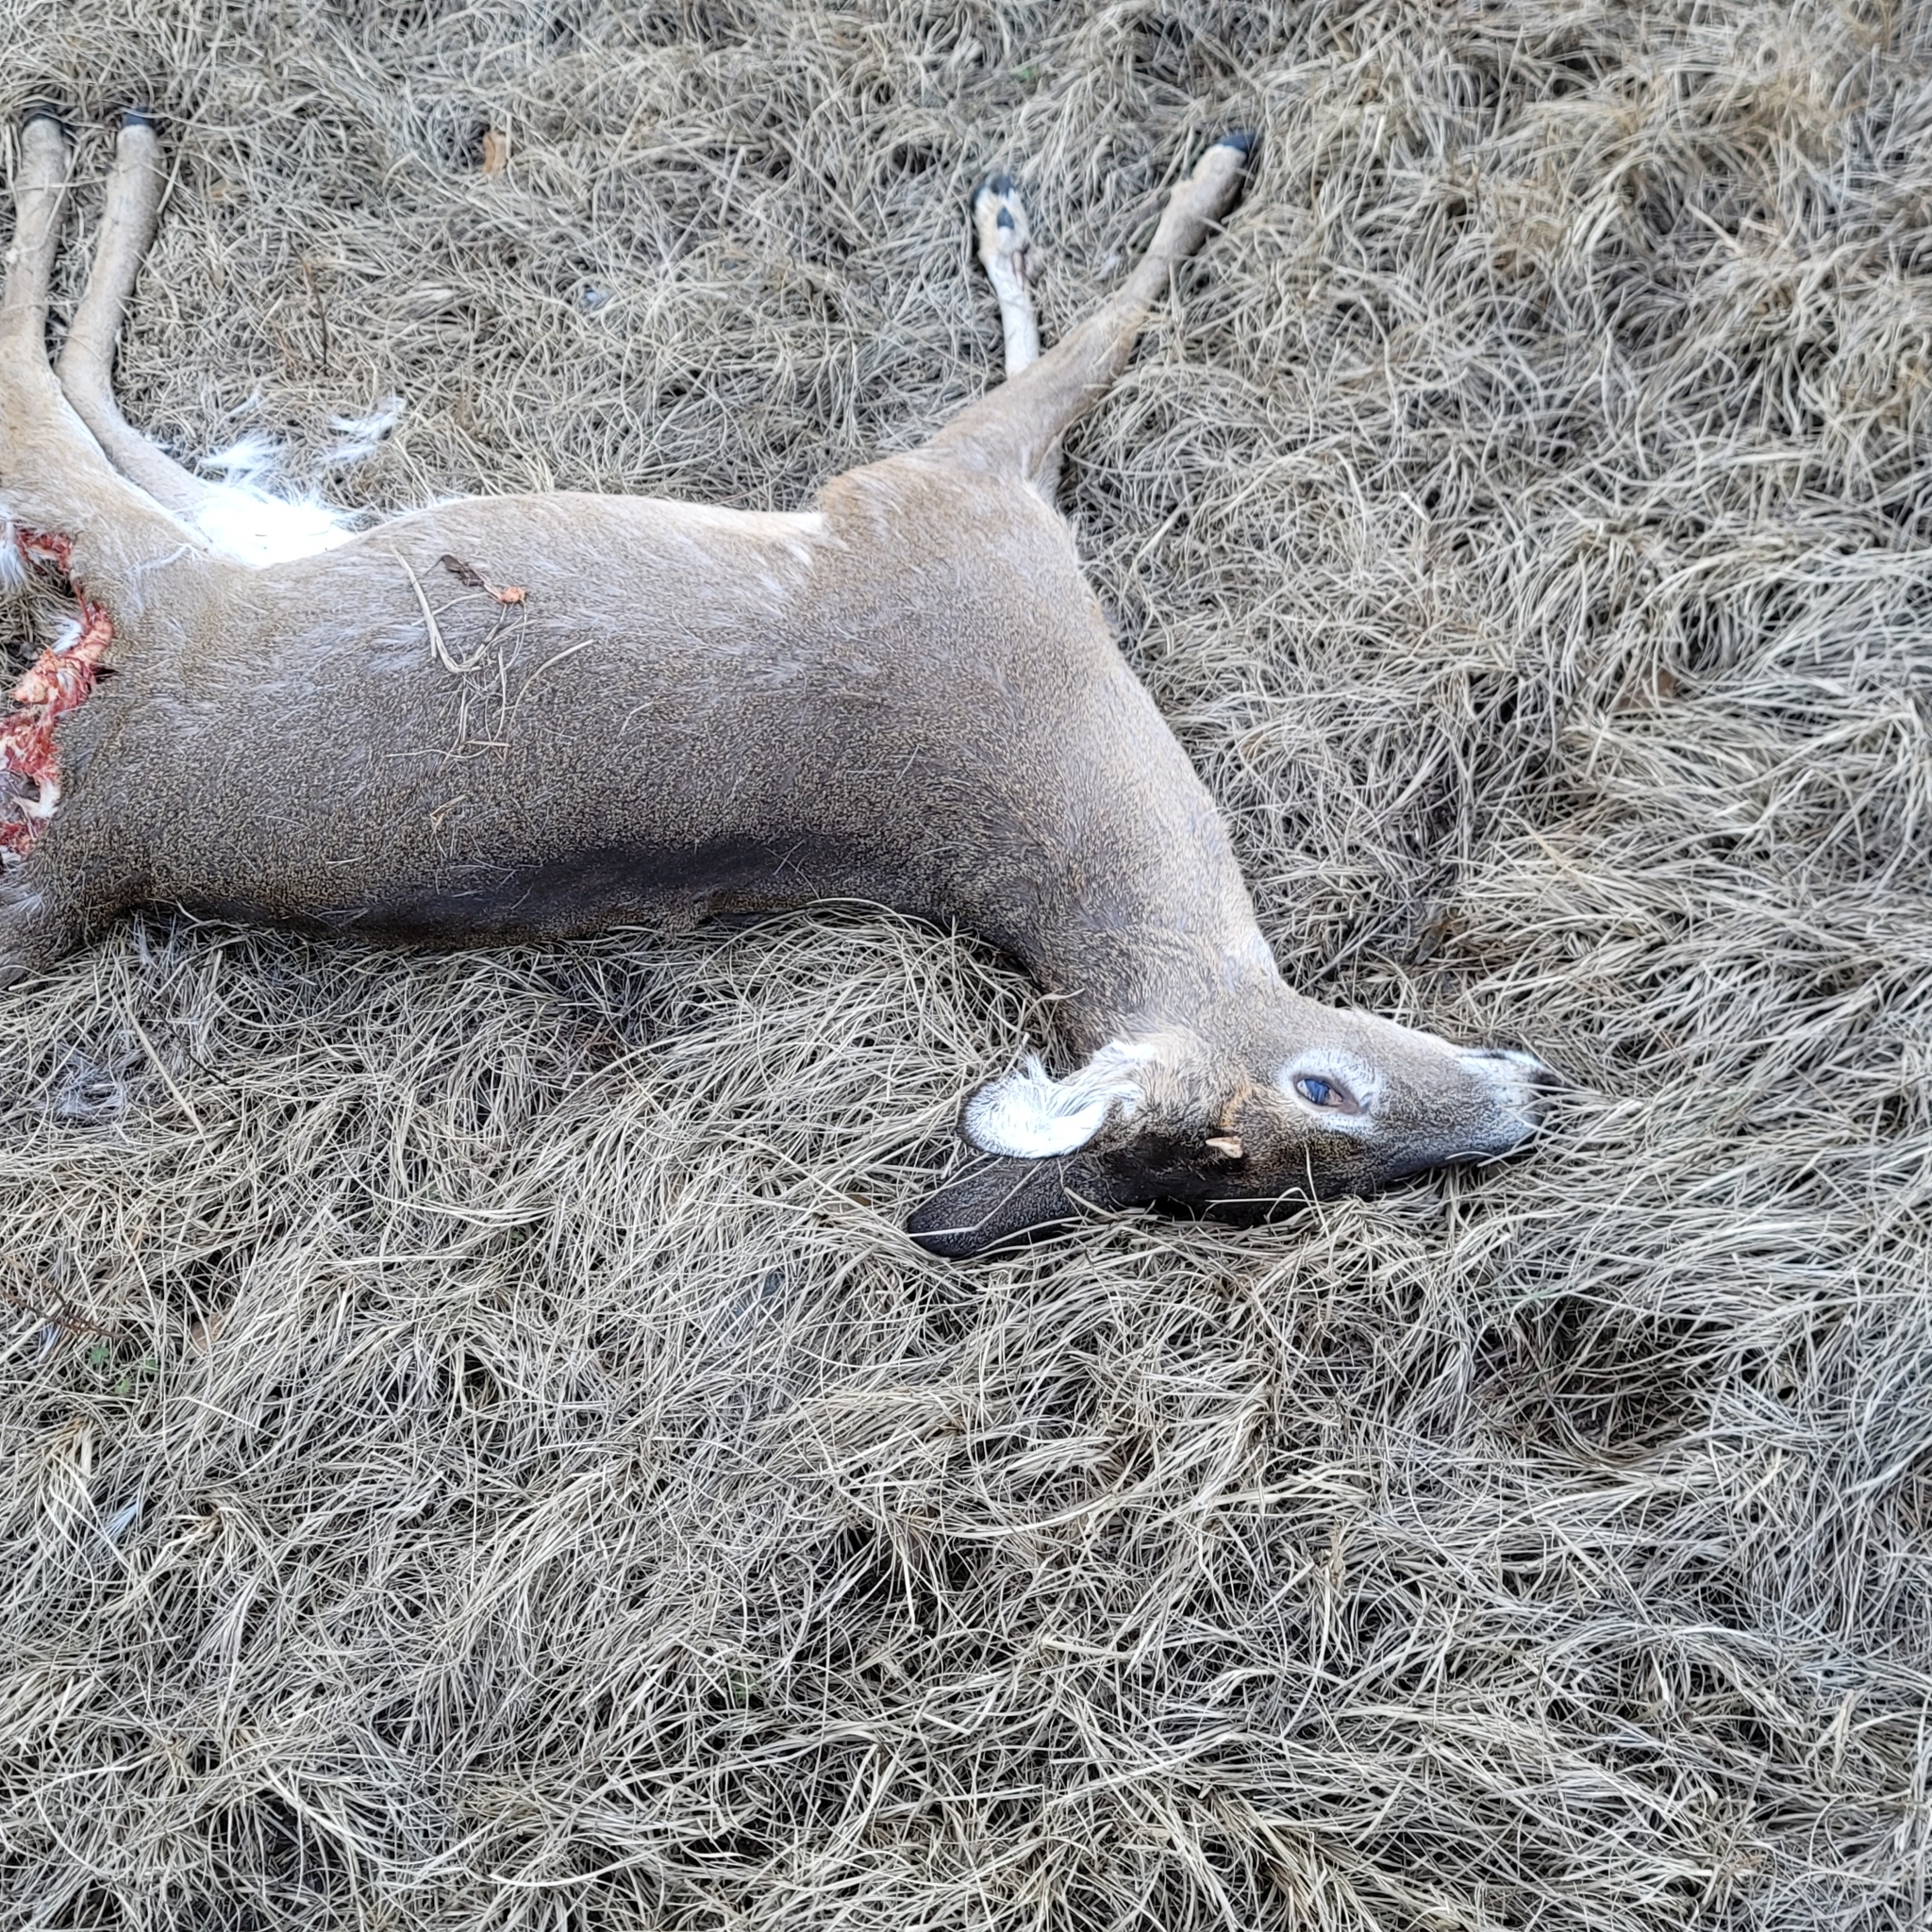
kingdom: Animalia
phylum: Chordata
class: Mammalia
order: Artiodactyla
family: Cervidae
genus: Odocoileus
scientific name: Odocoileus virginianus
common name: White-tailed deer
